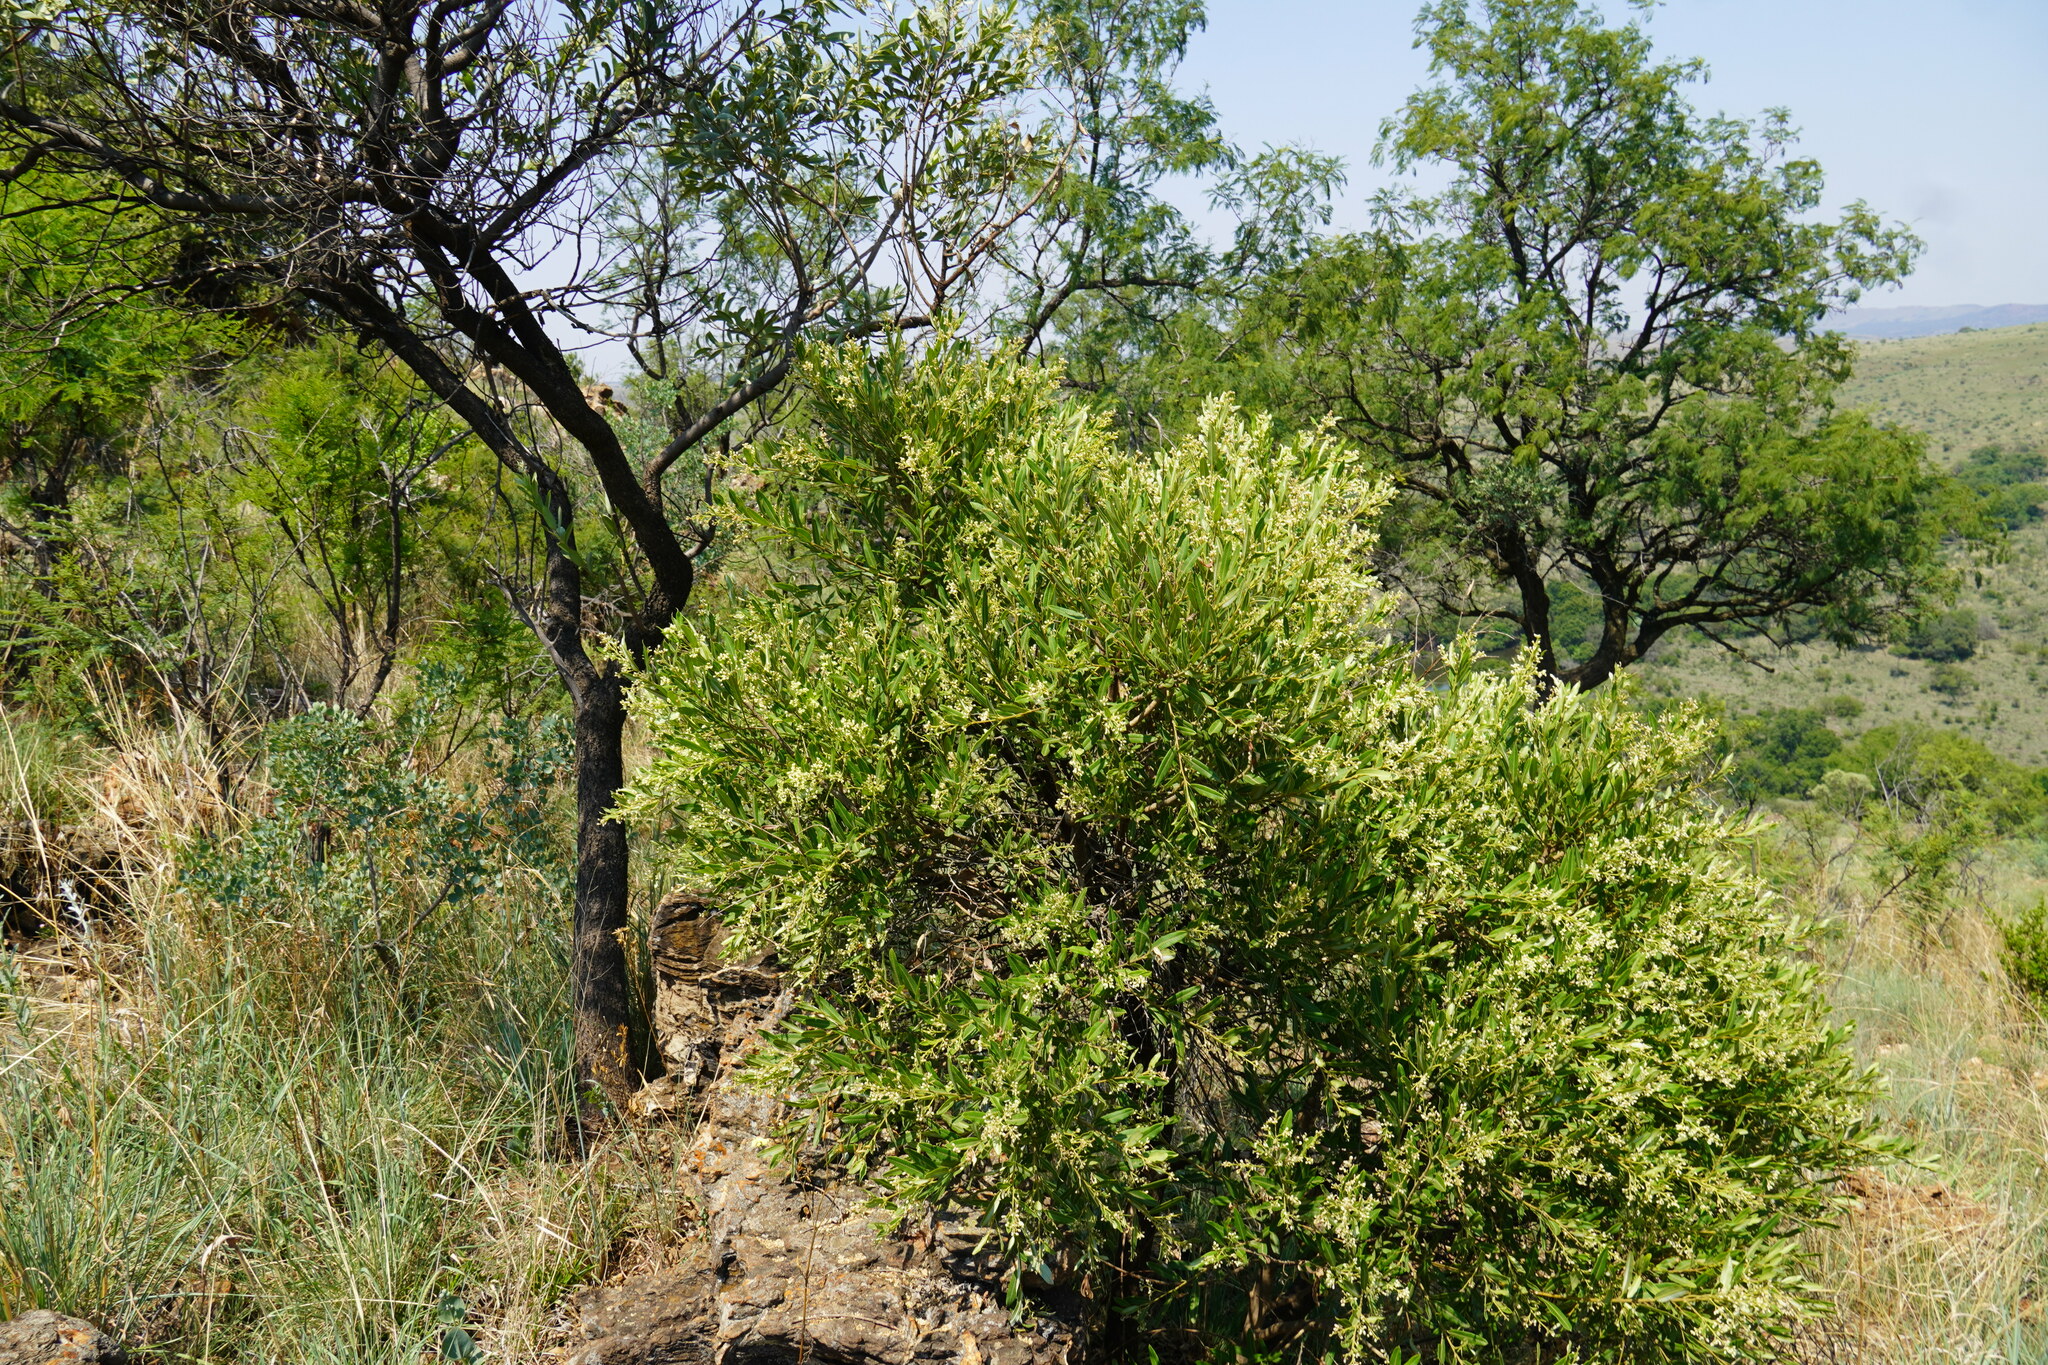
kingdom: Plantae
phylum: Tracheophyta
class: Magnoliopsida
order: Sapindales
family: Anacardiaceae
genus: Ozoroa
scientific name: Ozoroa paniculosa
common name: Bushveld ozoroa
